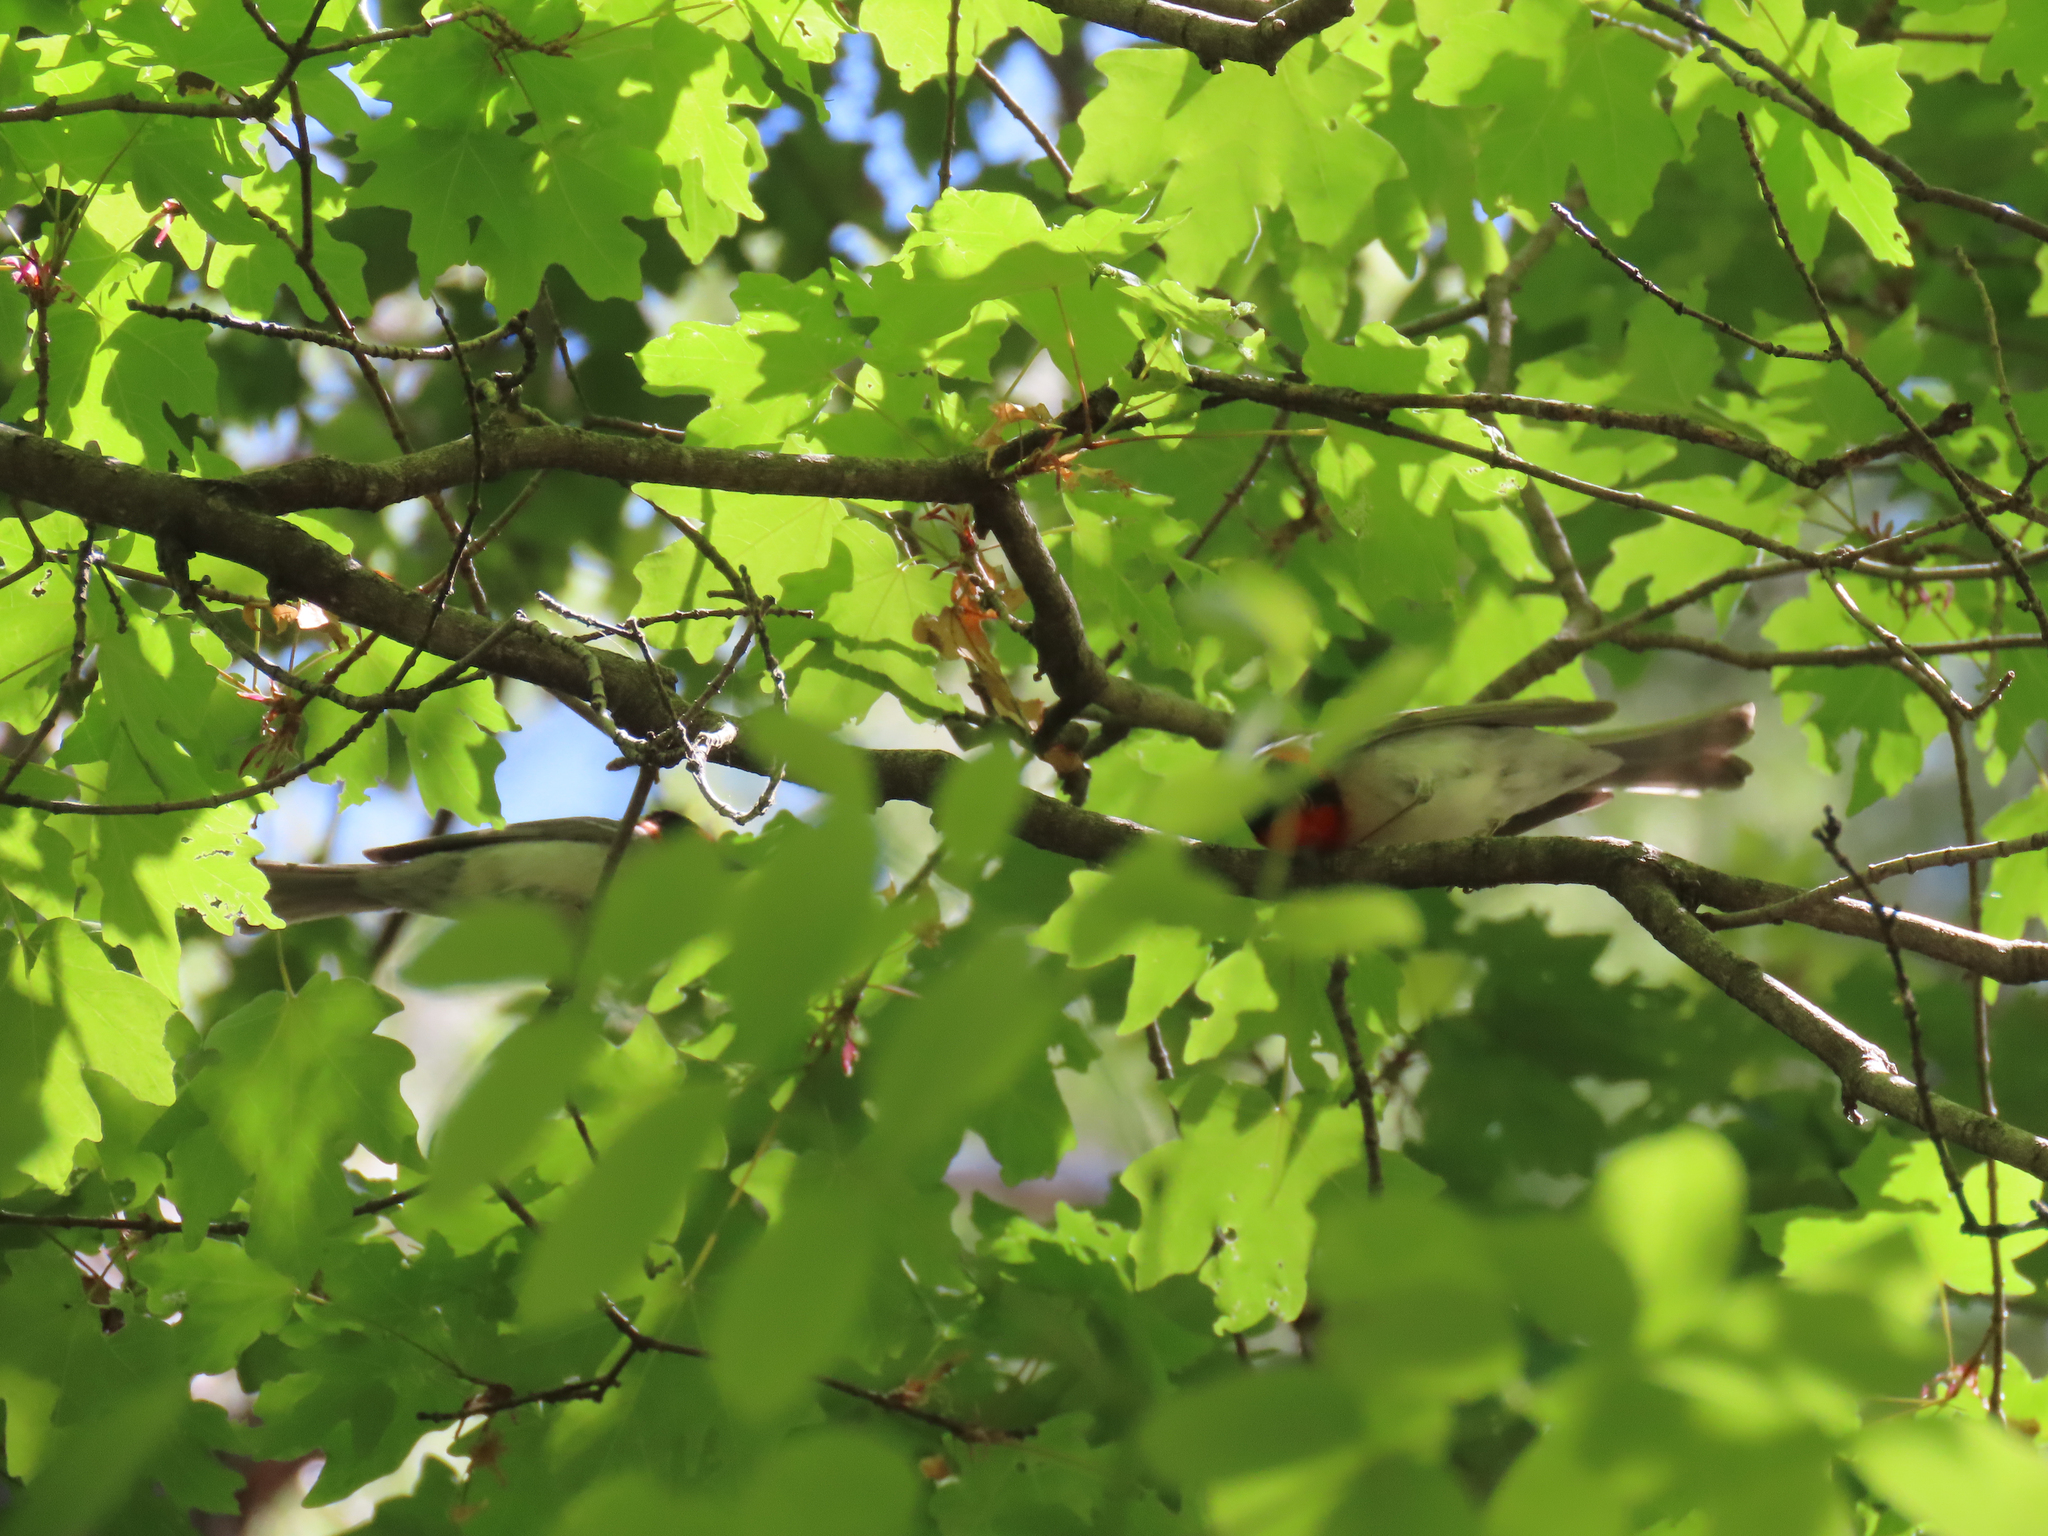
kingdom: Animalia
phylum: Chordata
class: Aves
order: Passeriformes
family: Parulidae
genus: Cardellina
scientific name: Cardellina rubrifrons
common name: Red-faced warbler
